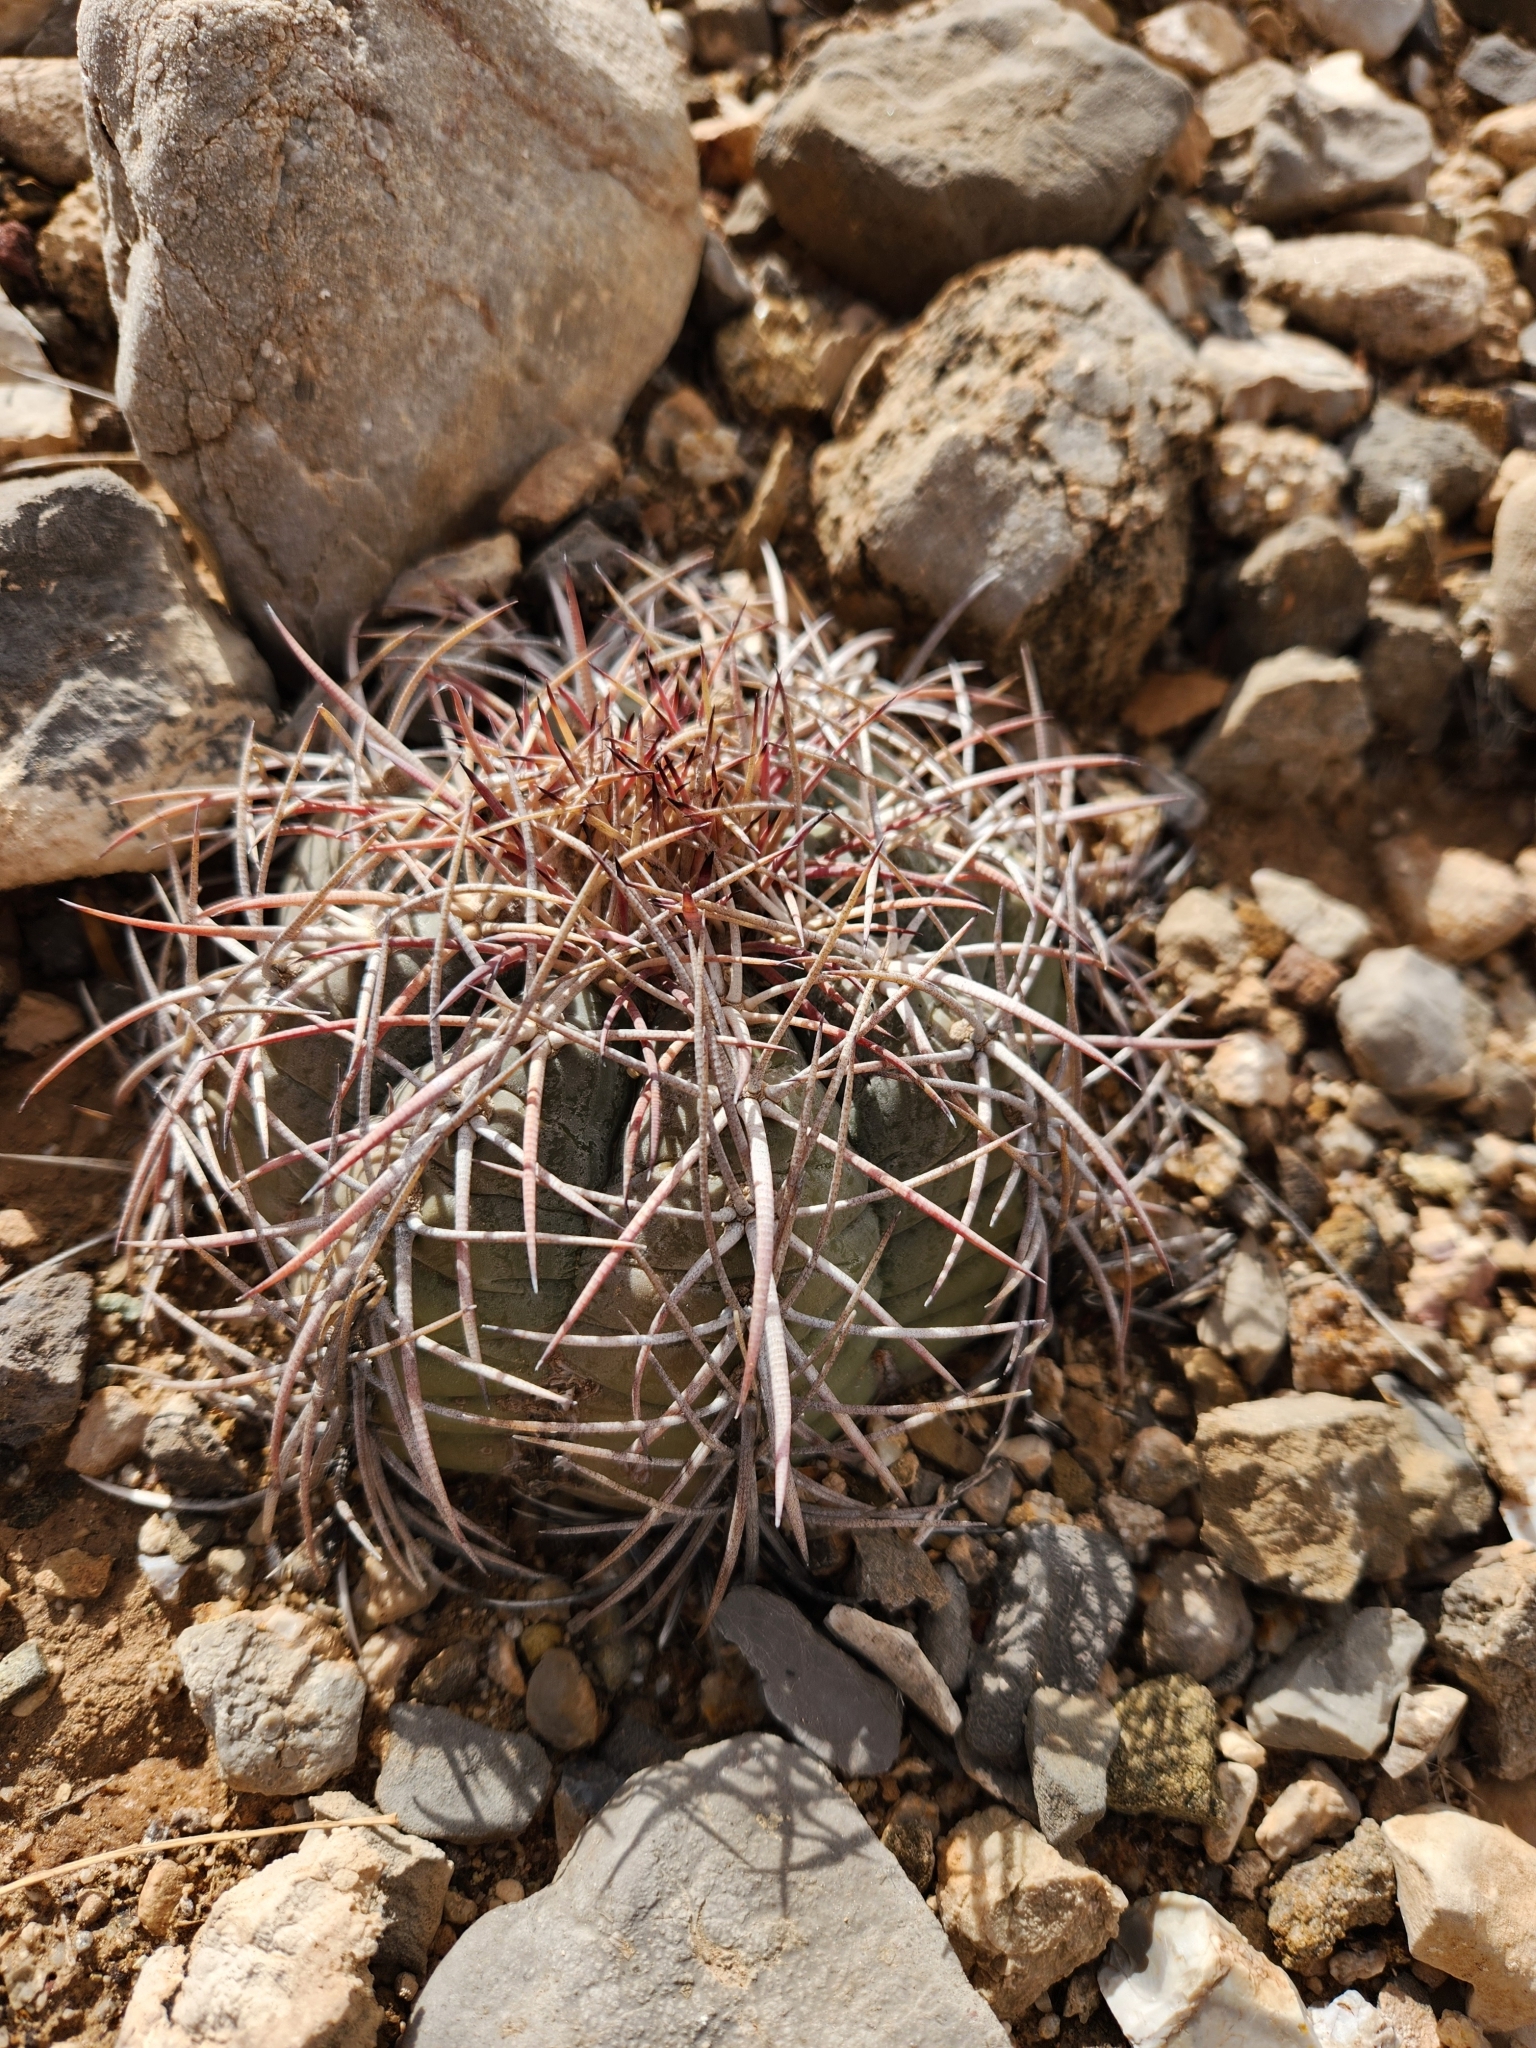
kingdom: Plantae
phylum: Tracheophyta
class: Magnoliopsida
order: Caryophyllales
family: Cactaceae
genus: Echinocactus
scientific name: Echinocactus horizonthalonius
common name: Devilshead
